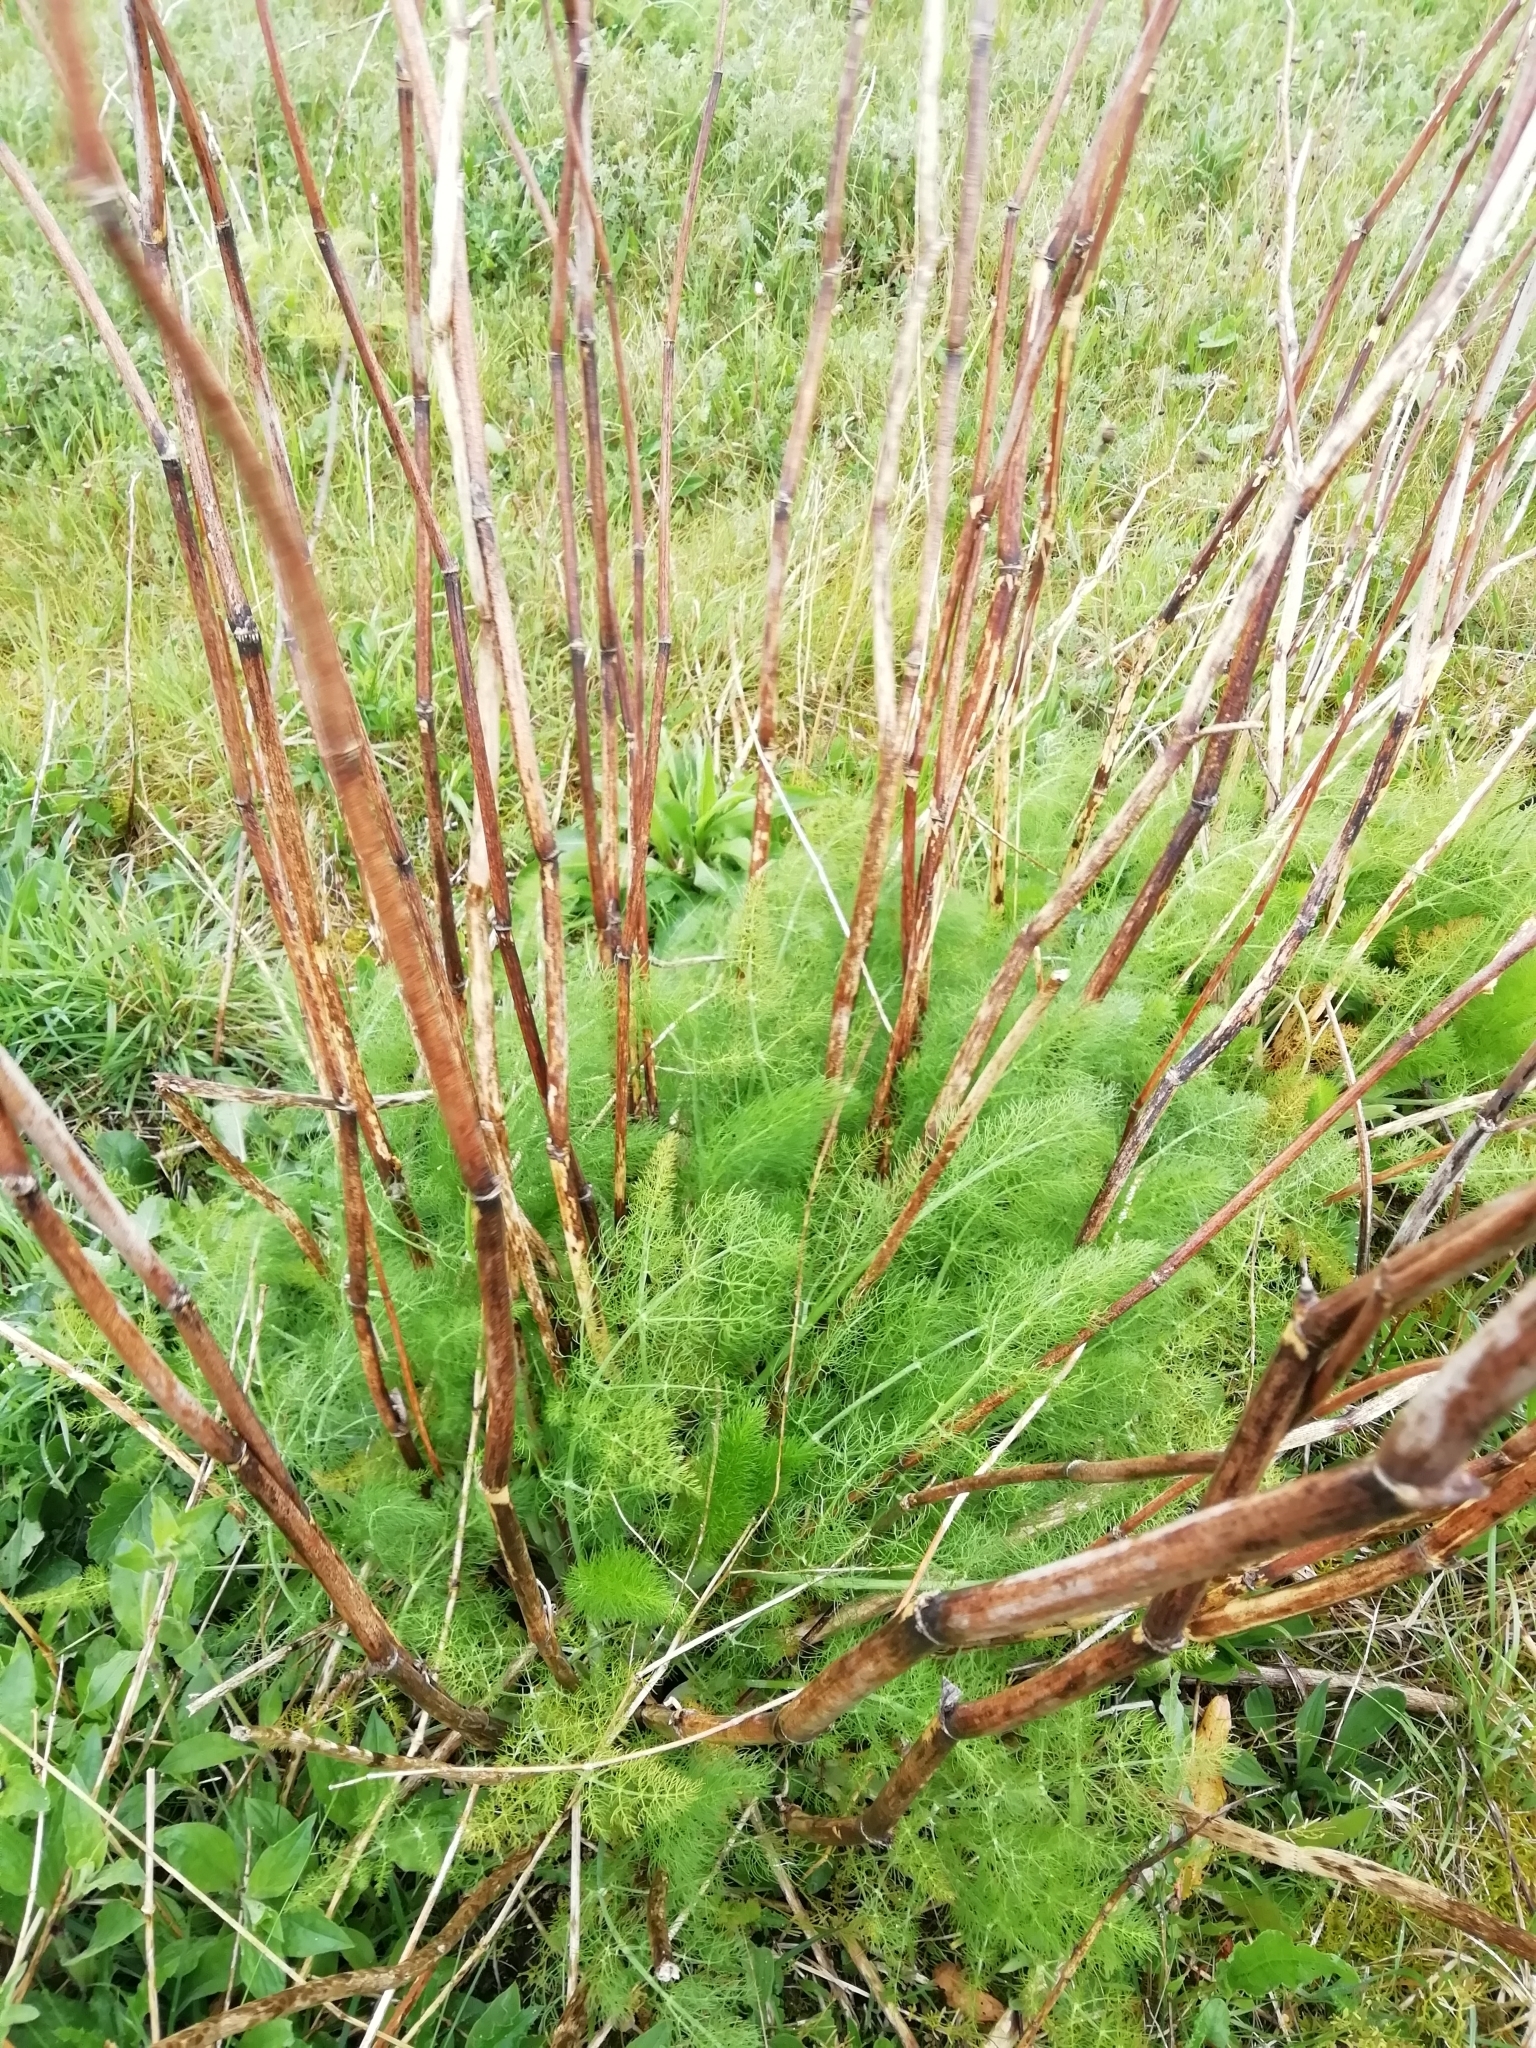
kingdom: Plantae
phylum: Tracheophyta
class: Magnoliopsida
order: Apiales
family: Apiaceae
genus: Foeniculum
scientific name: Foeniculum vulgare
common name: Fennel
